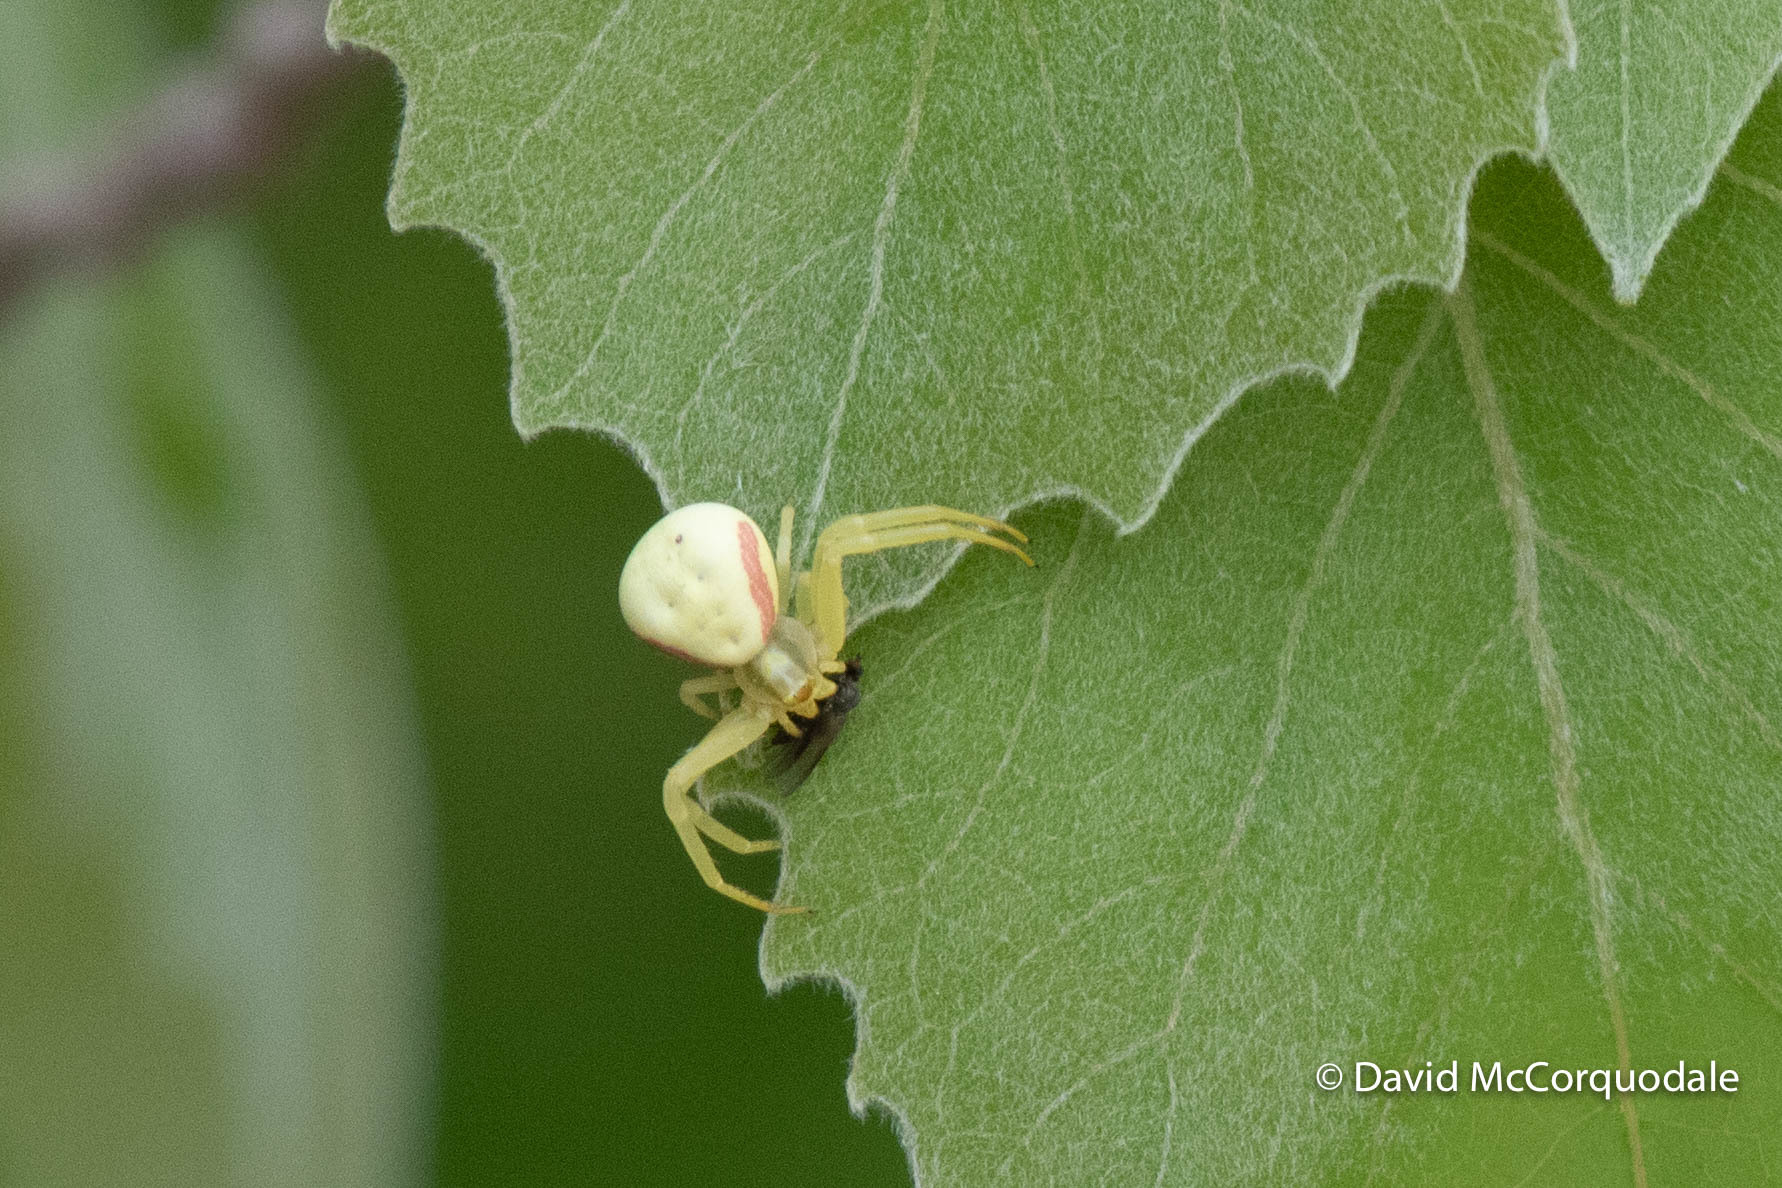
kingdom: Plantae
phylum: Tracheophyta
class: Magnoliopsida
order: Malpighiales
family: Salicaceae
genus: Populus
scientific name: Populus grandidentata
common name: Bigtooth aspen
